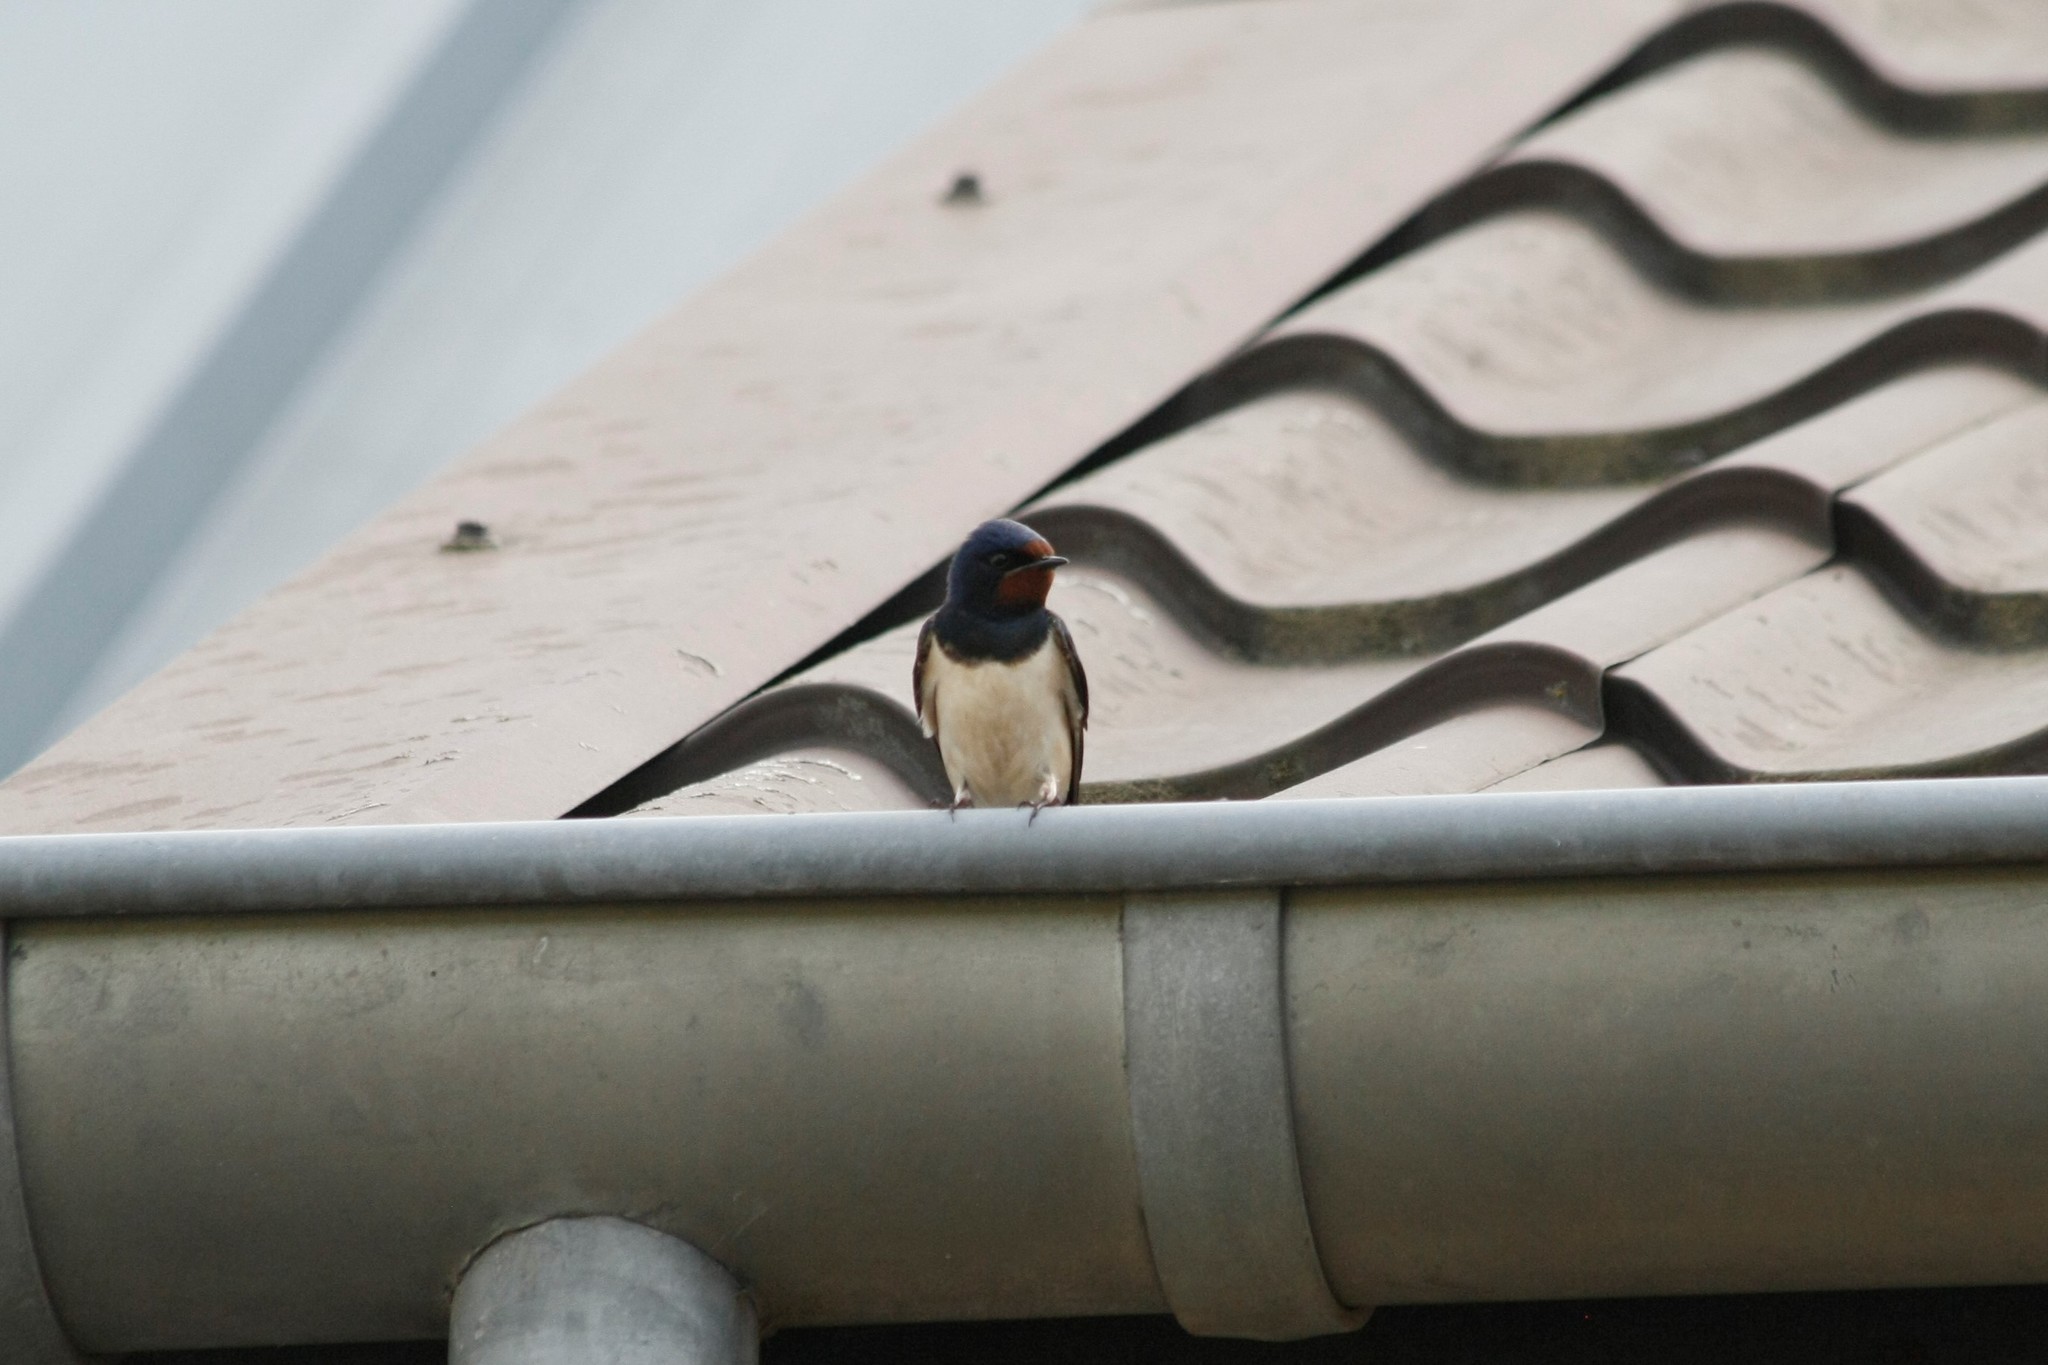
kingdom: Animalia
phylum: Chordata
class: Aves
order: Passeriformes
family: Hirundinidae
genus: Hirundo
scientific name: Hirundo rustica
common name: Barn swallow
